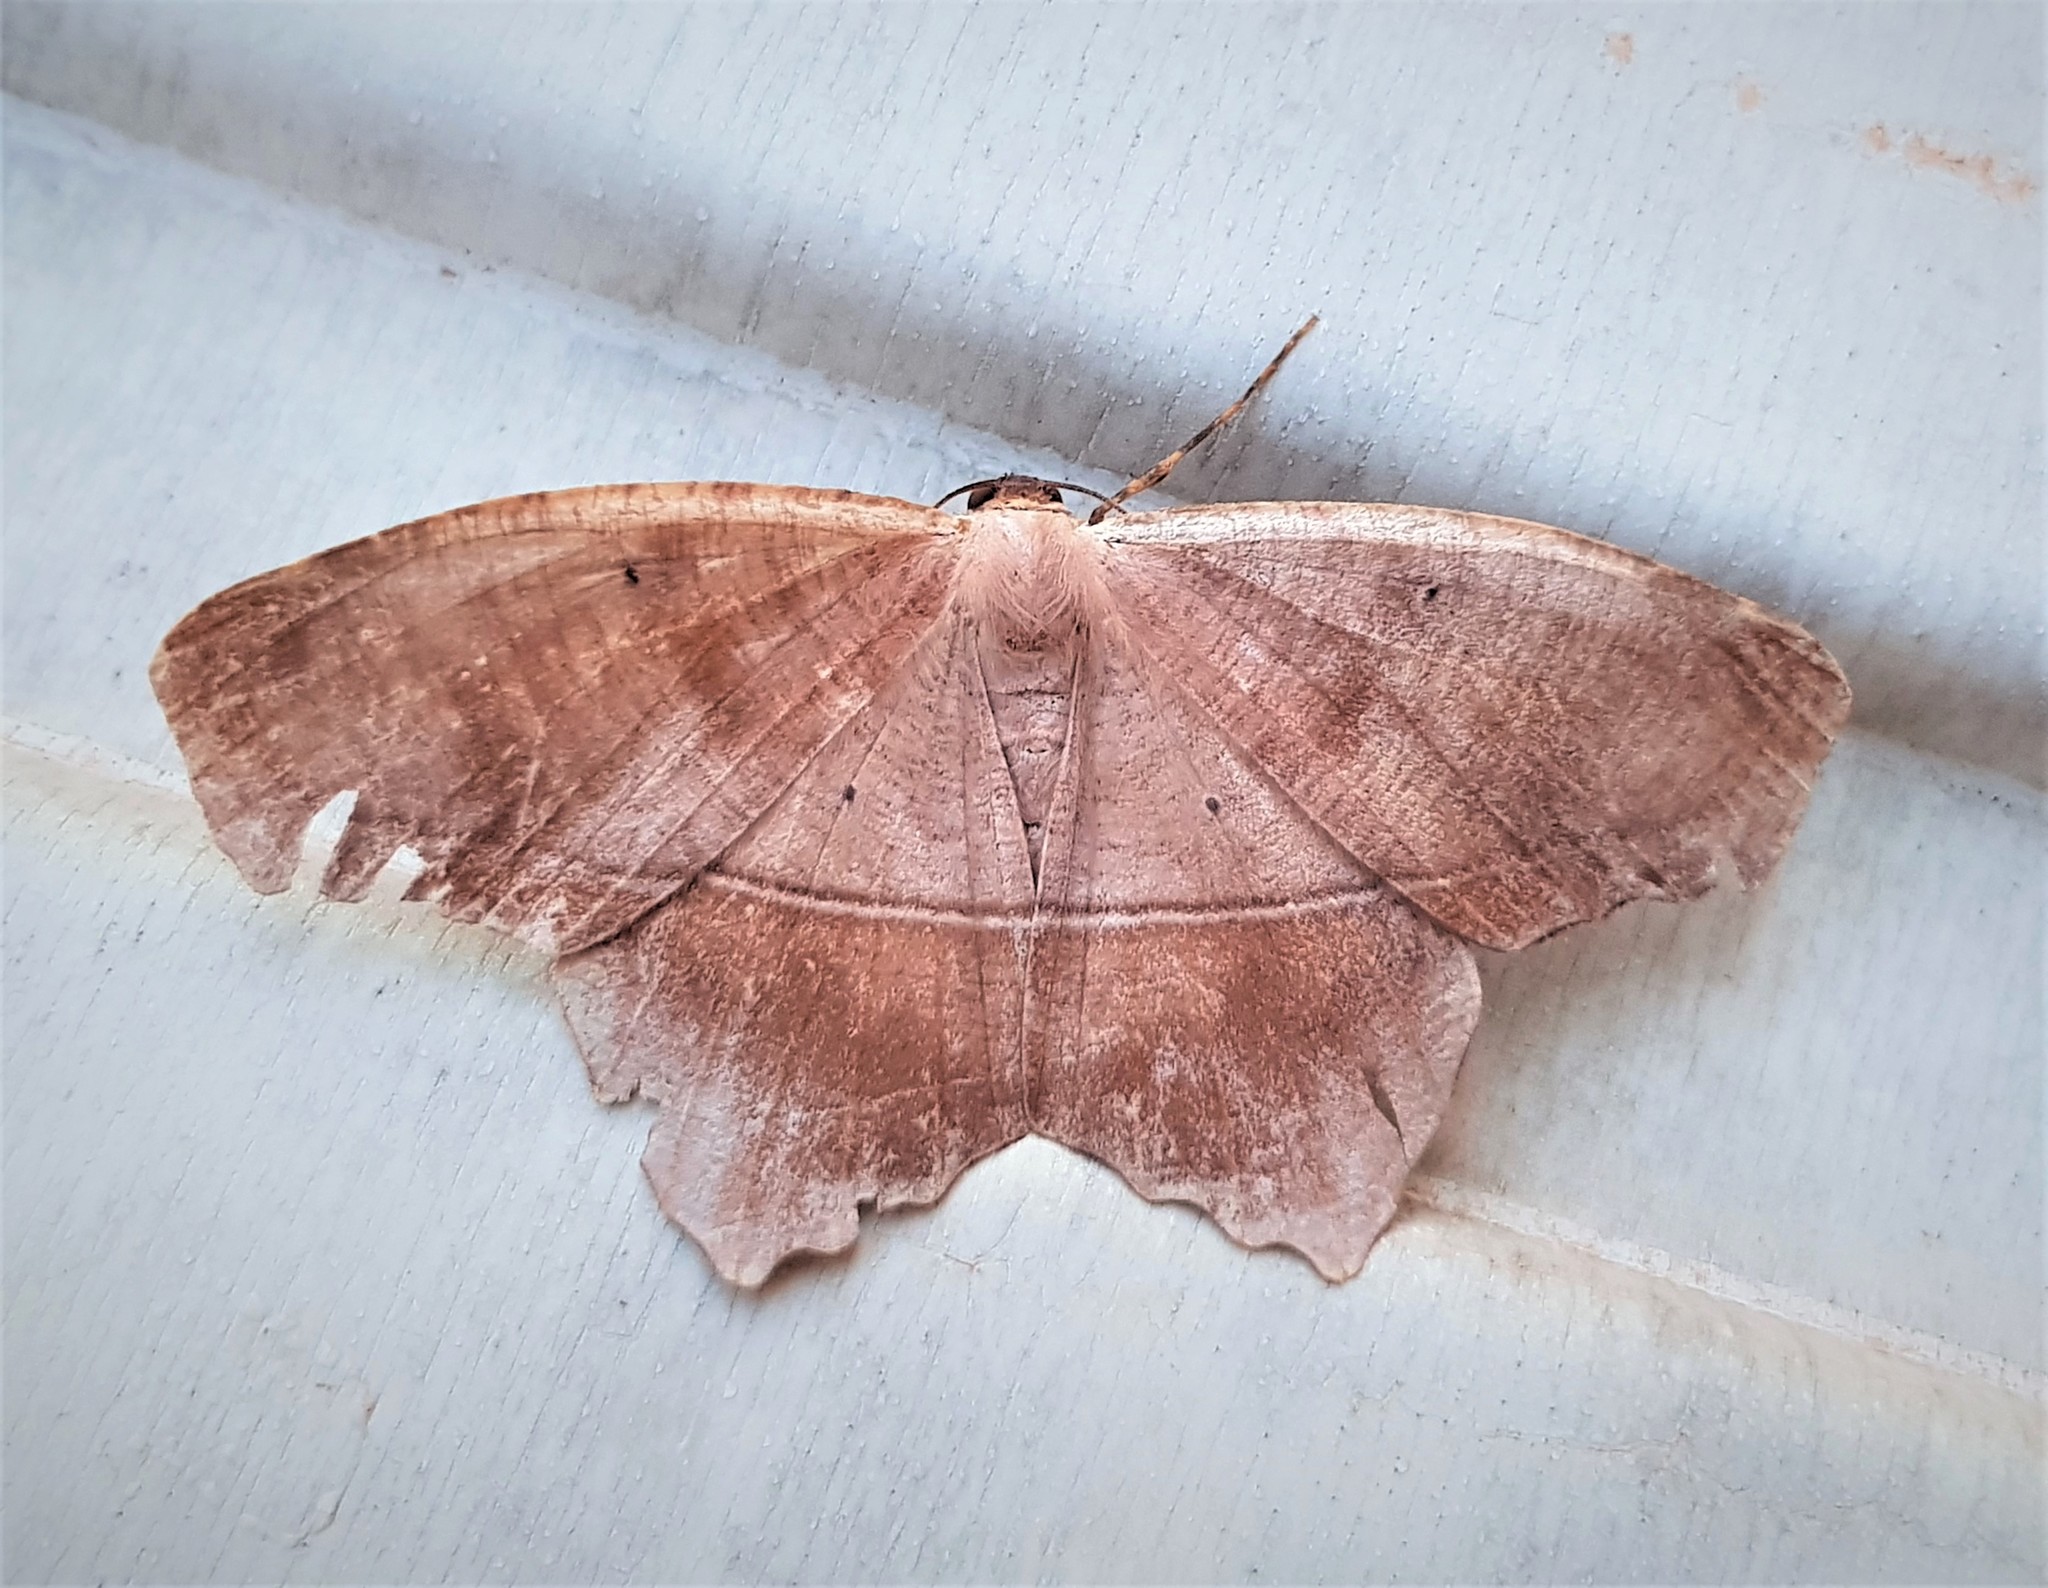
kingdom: Animalia
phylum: Arthropoda
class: Insecta
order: Lepidoptera
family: Geometridae
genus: Trotopera
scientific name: Trotopera maranharia
